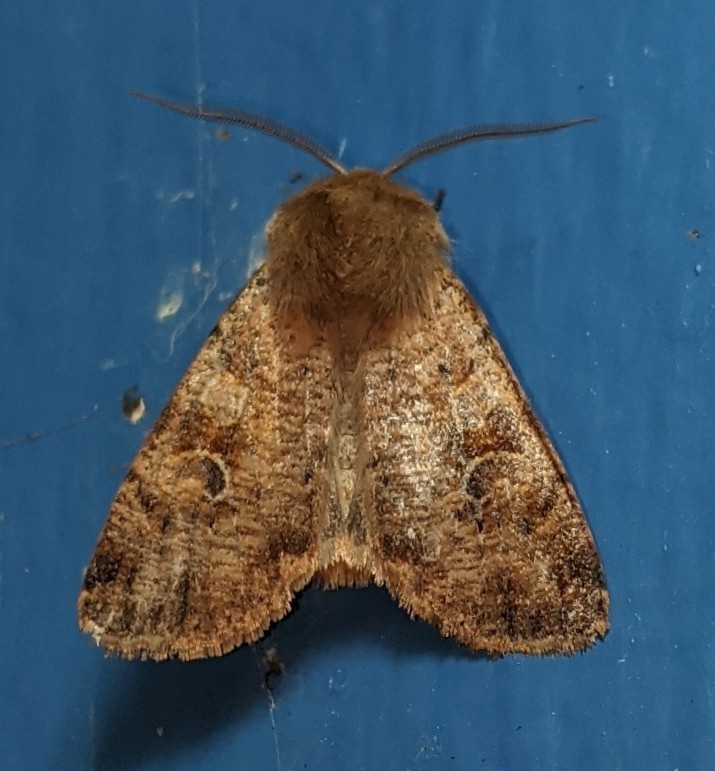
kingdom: Animalia
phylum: Arthropoda
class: Insecta
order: Lepidoptera
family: Noctuidae
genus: Orthosia
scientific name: Orthosia rubescens
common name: Ruby quaker
